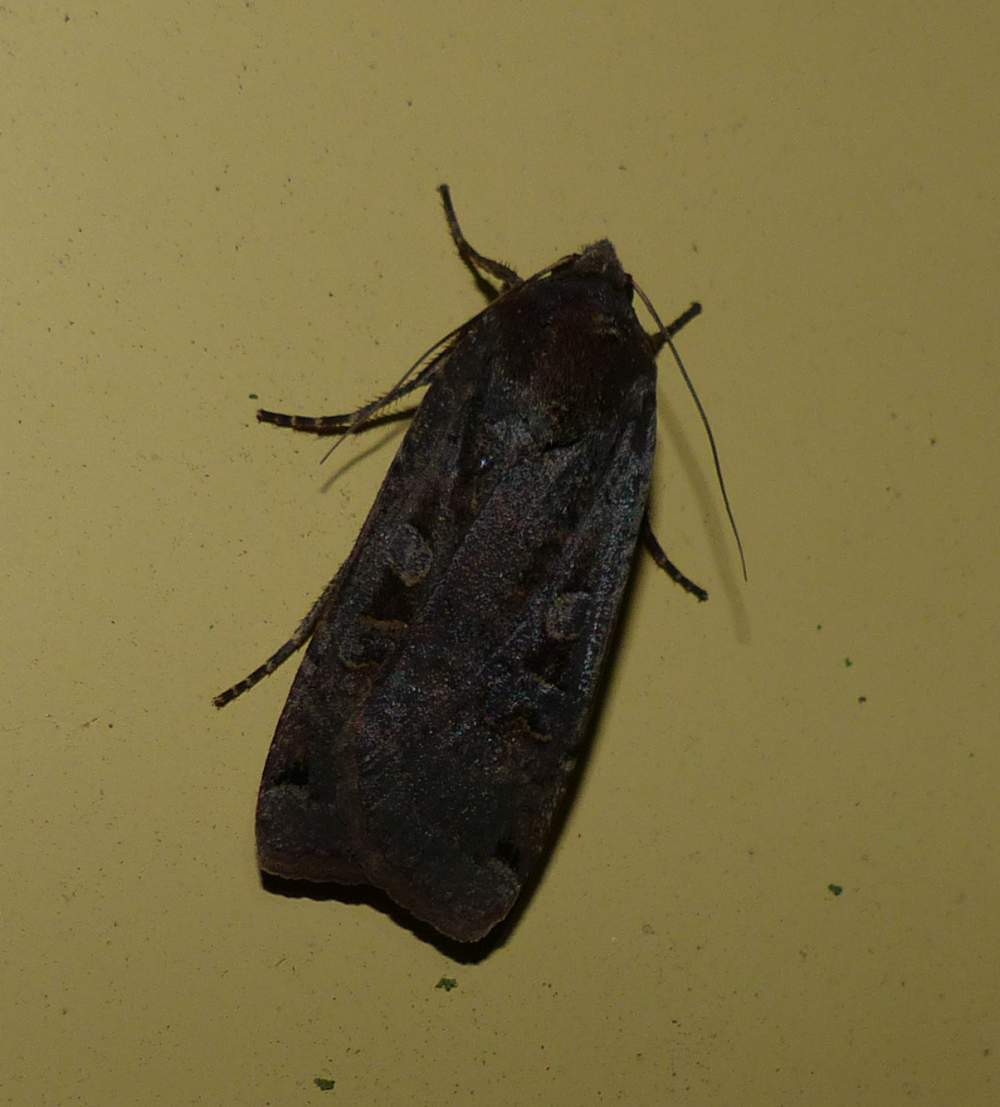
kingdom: Animalia
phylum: Arthropoda
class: Insecta
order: Lepidoptera
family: Noctuidae
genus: Noctua
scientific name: Noctua pronuba
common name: Large yellow underwing
